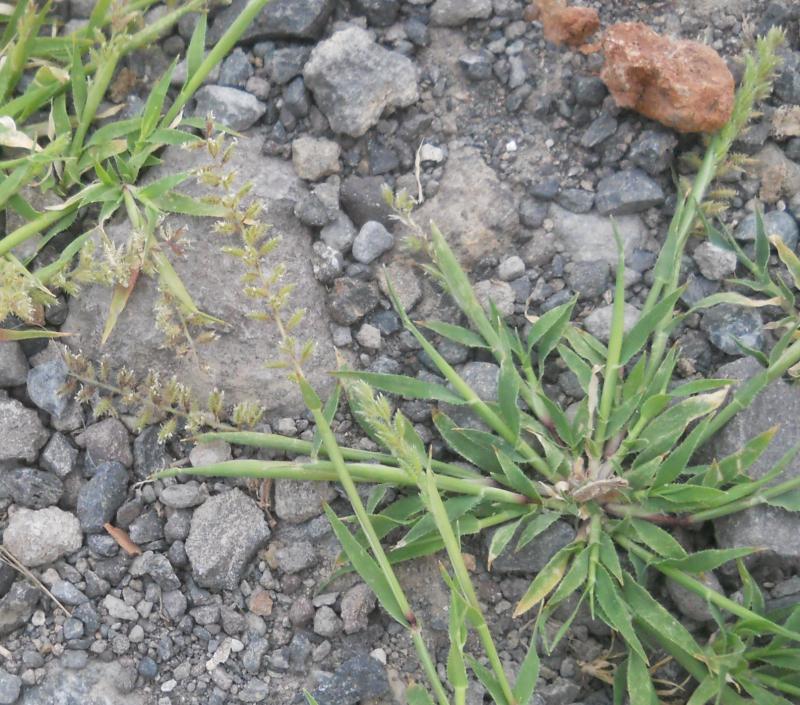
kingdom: Plantae
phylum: Tracheophyta
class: Liliopsida
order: Poales
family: Poaceae
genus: Tragus
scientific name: Tragus racemosus
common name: European bur-grass
